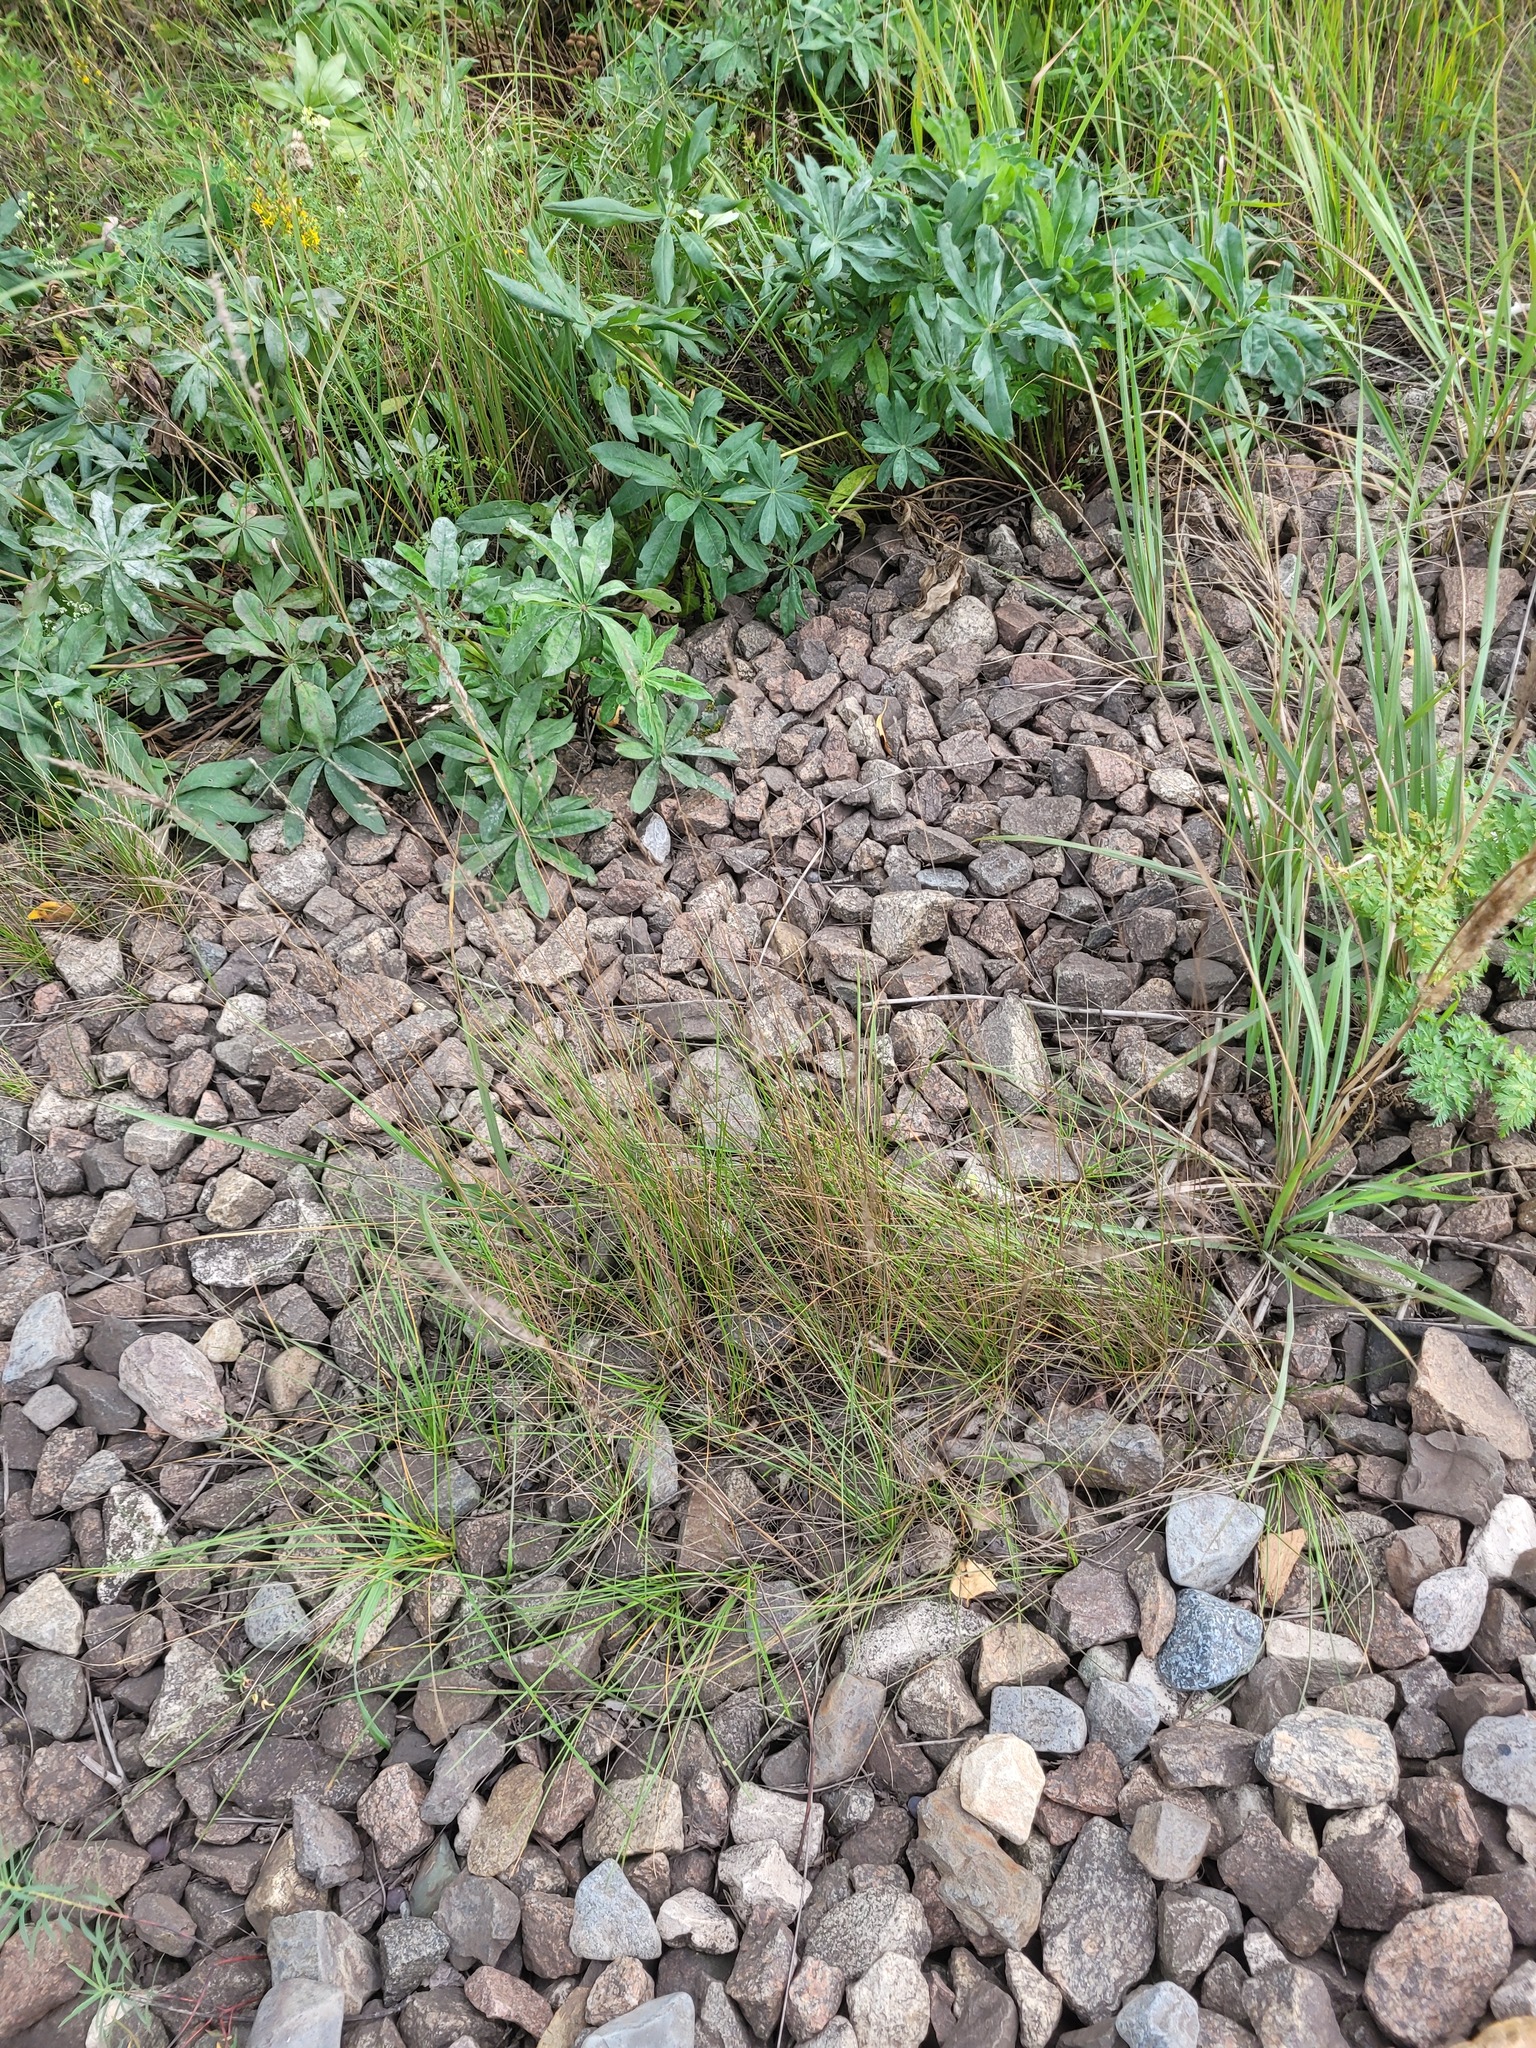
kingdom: Plantae
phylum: Tracheophyta
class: Liliopsida
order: Poales
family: Poaceae
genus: Poa
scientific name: Poa angustifolia
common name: Narrow-leaved meadow-grass
